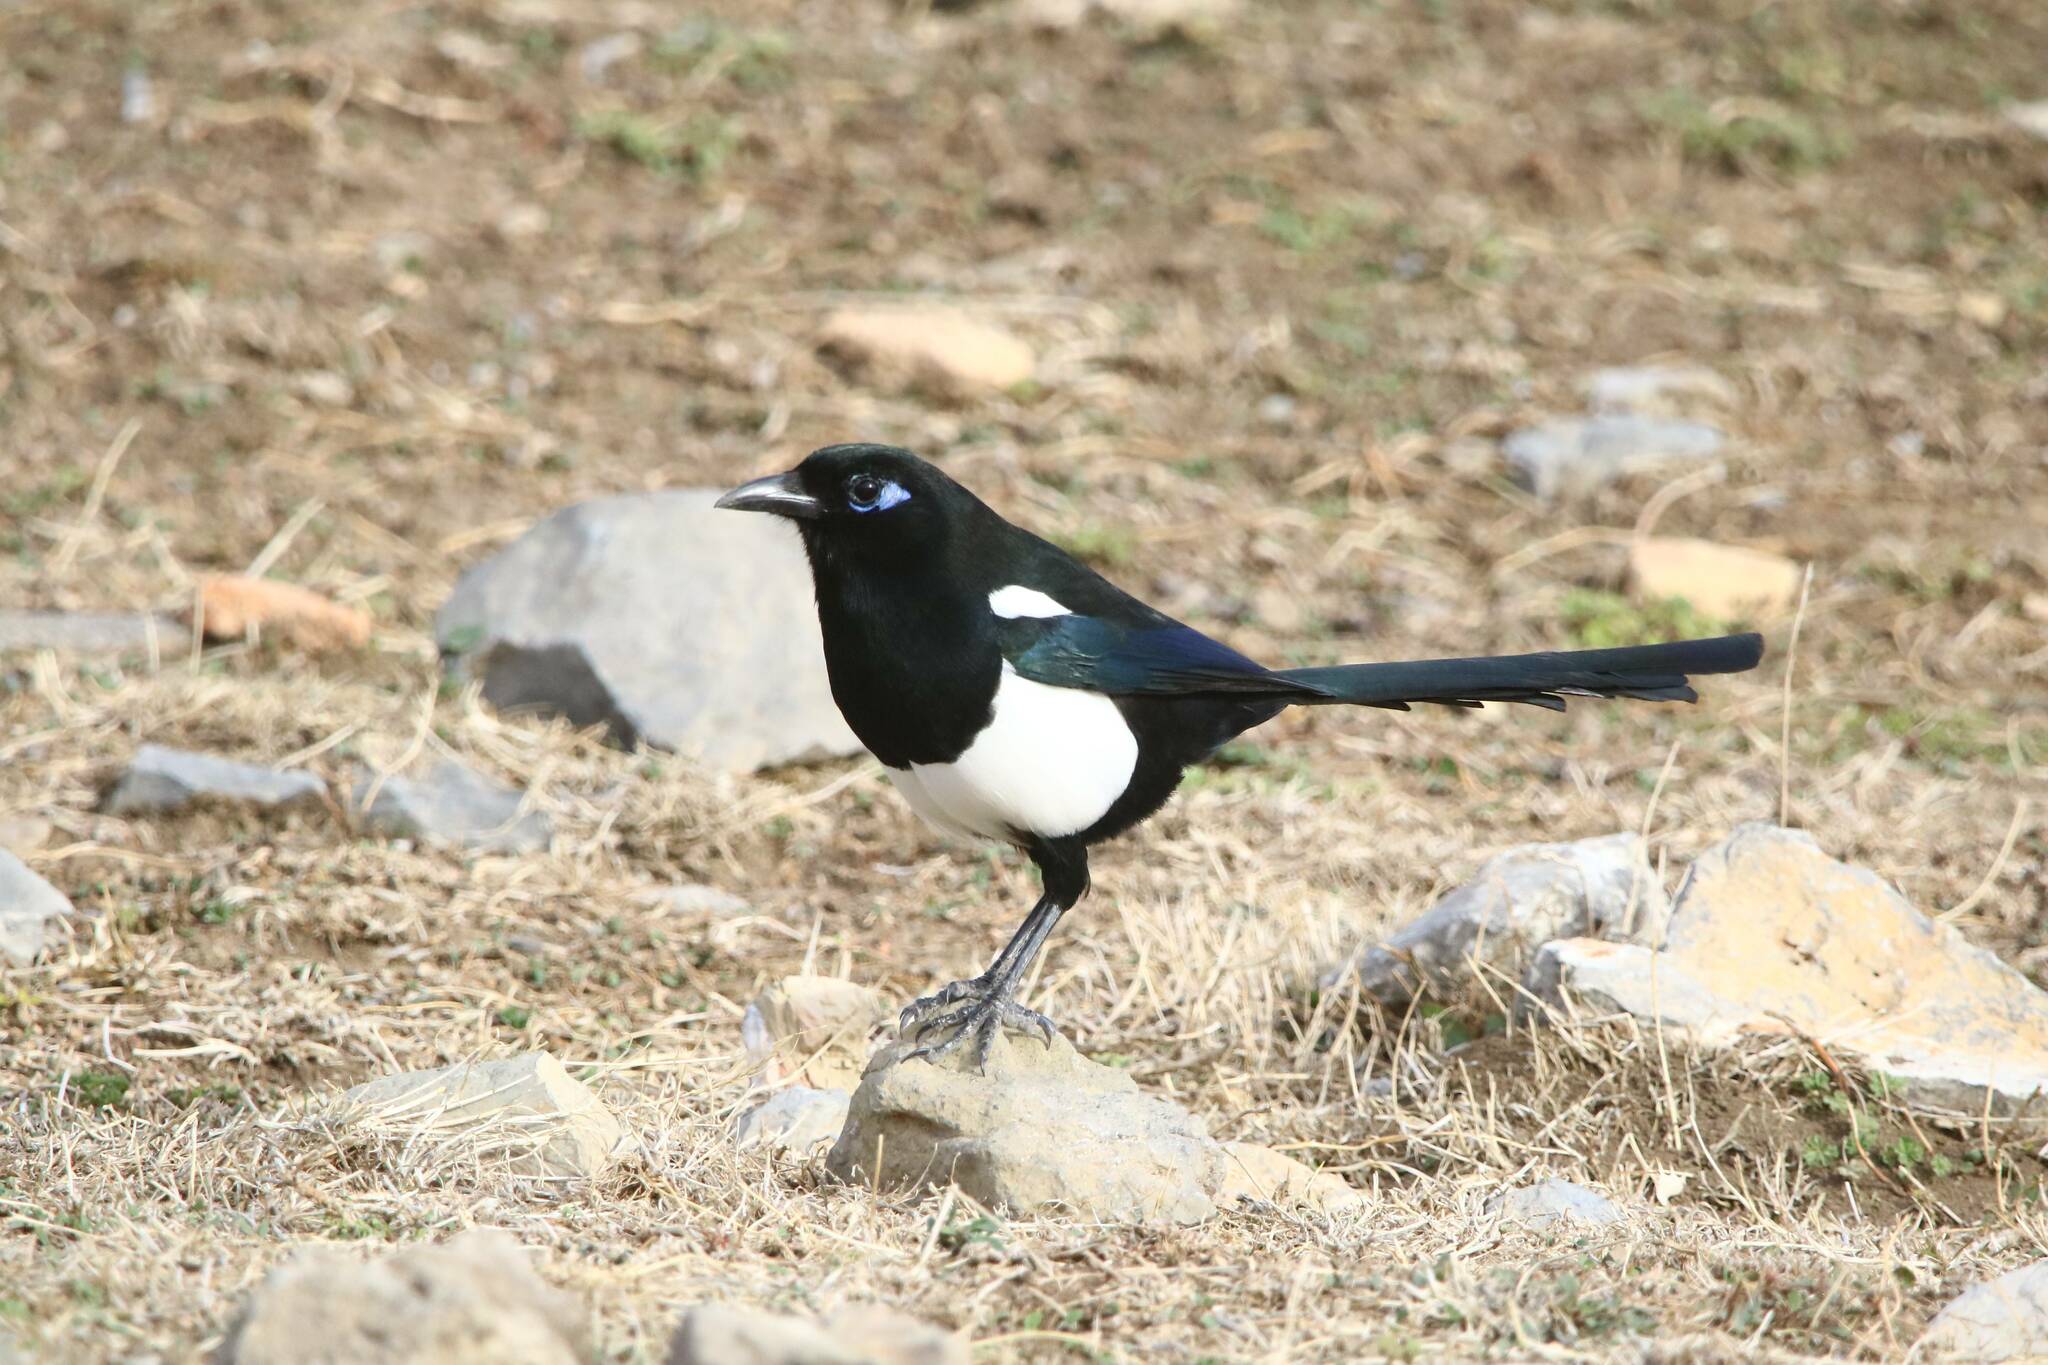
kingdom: Animalia
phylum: Chordata
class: Aves
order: Passeriformes
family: Corvidae
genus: Pica
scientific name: Pica mauritanica
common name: Maghreb magpie
